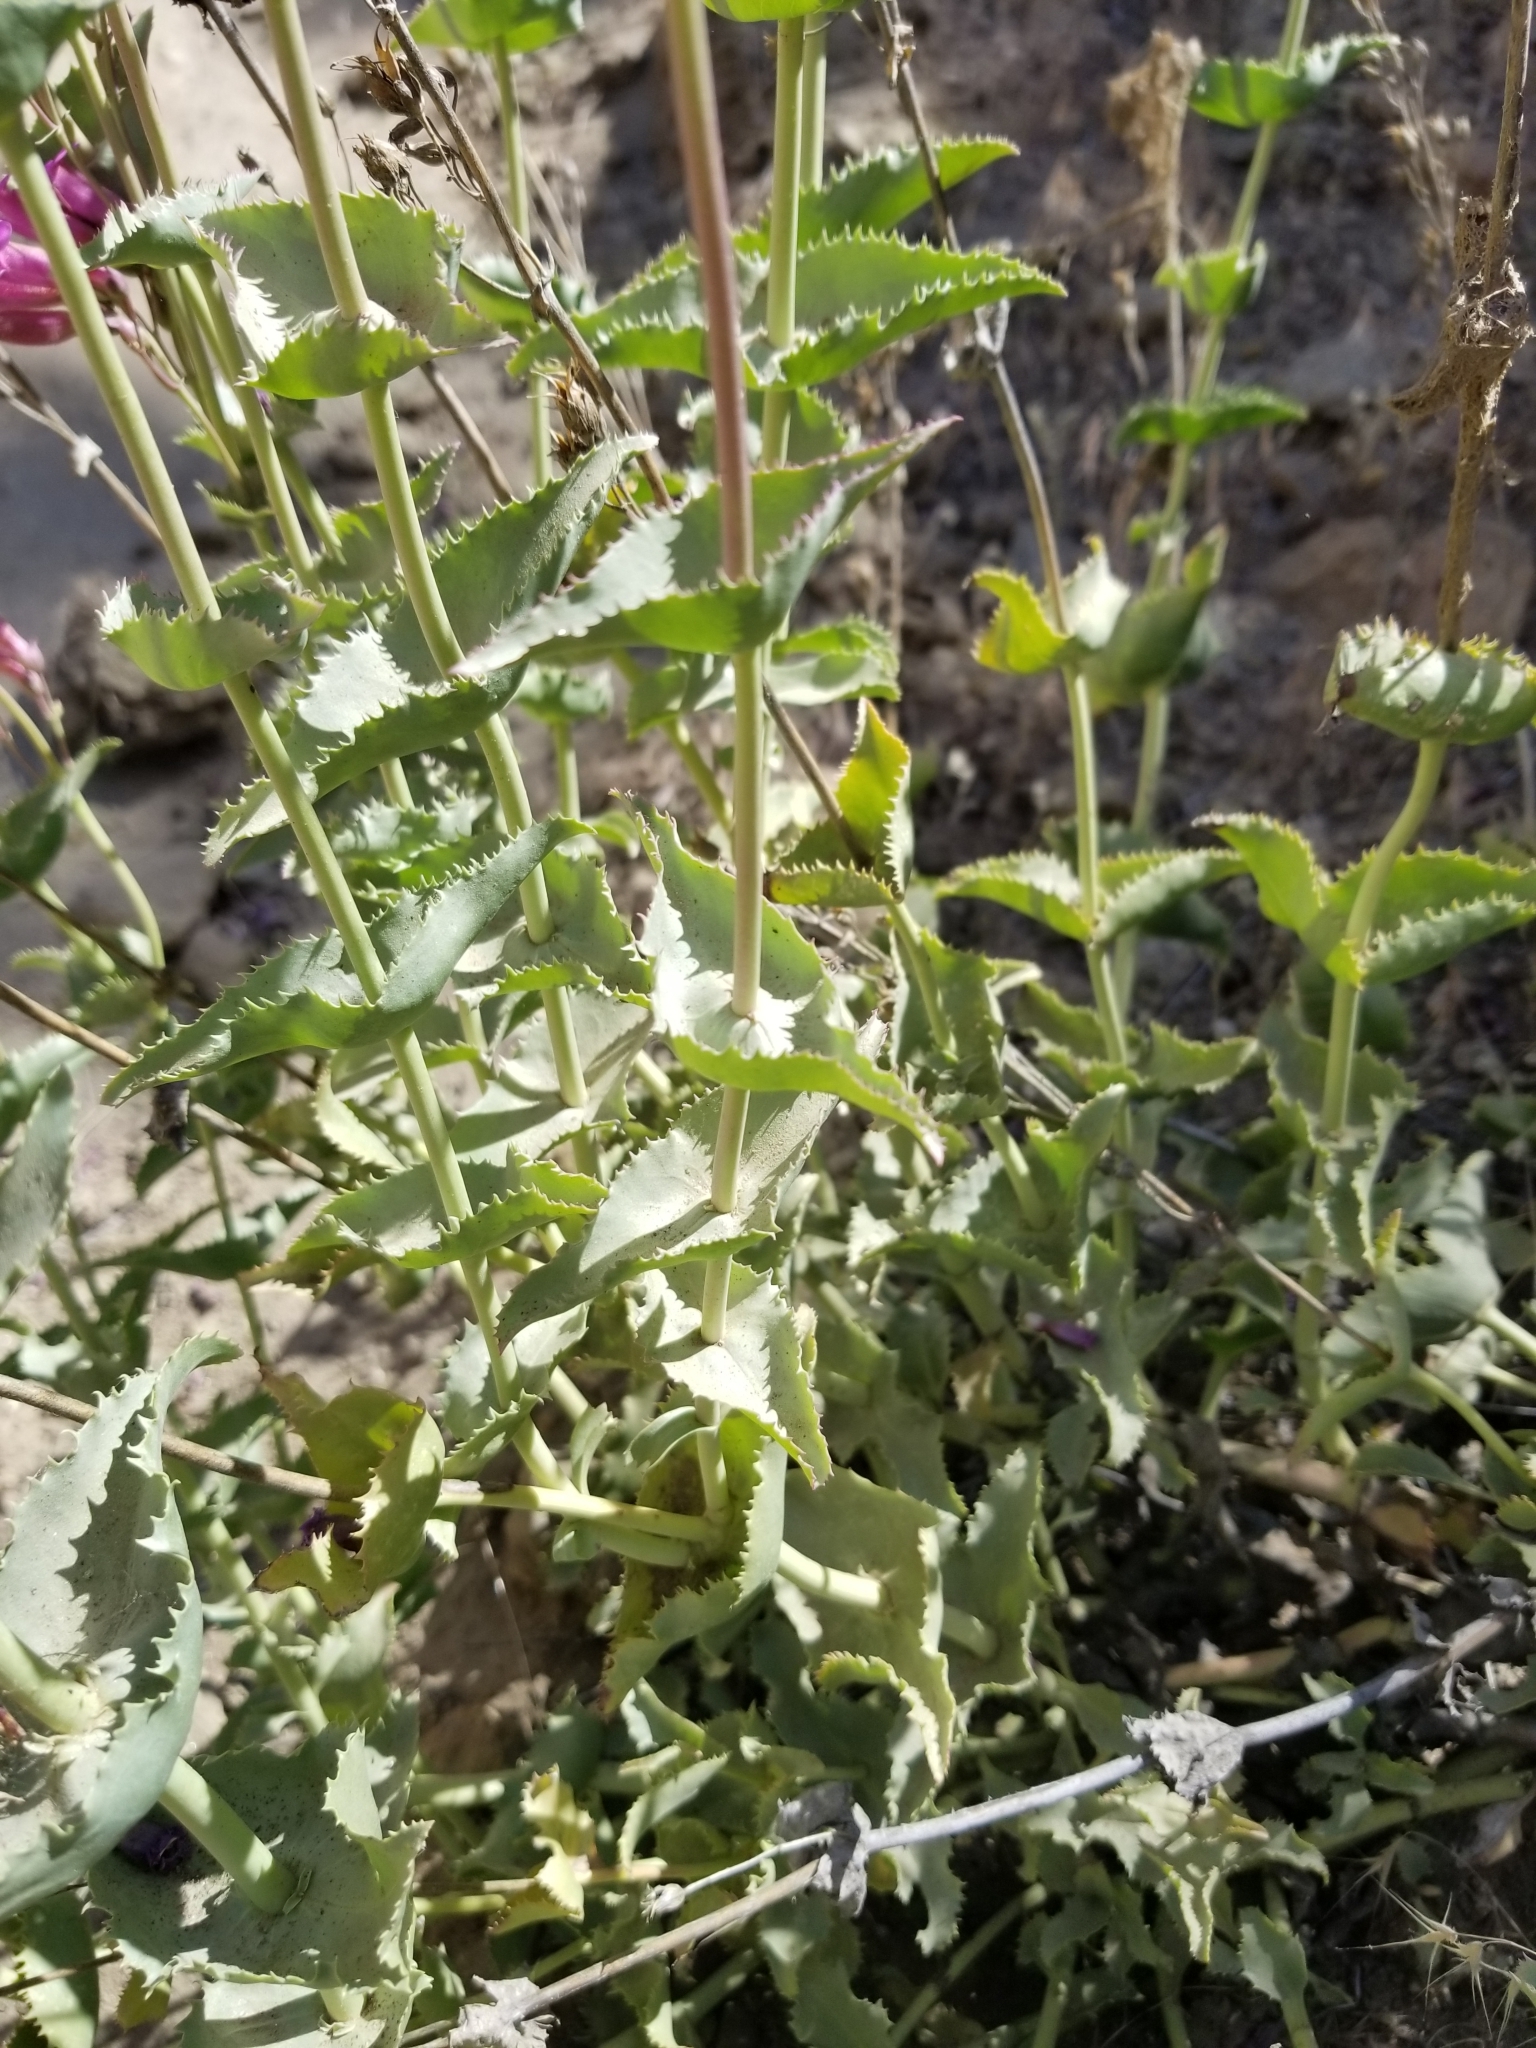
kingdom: Plantae
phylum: Tracheophyta
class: Magnoliopsida
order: Lamiales
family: Plantaginaceae
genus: Penstemon
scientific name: Penstemon clevelandii
